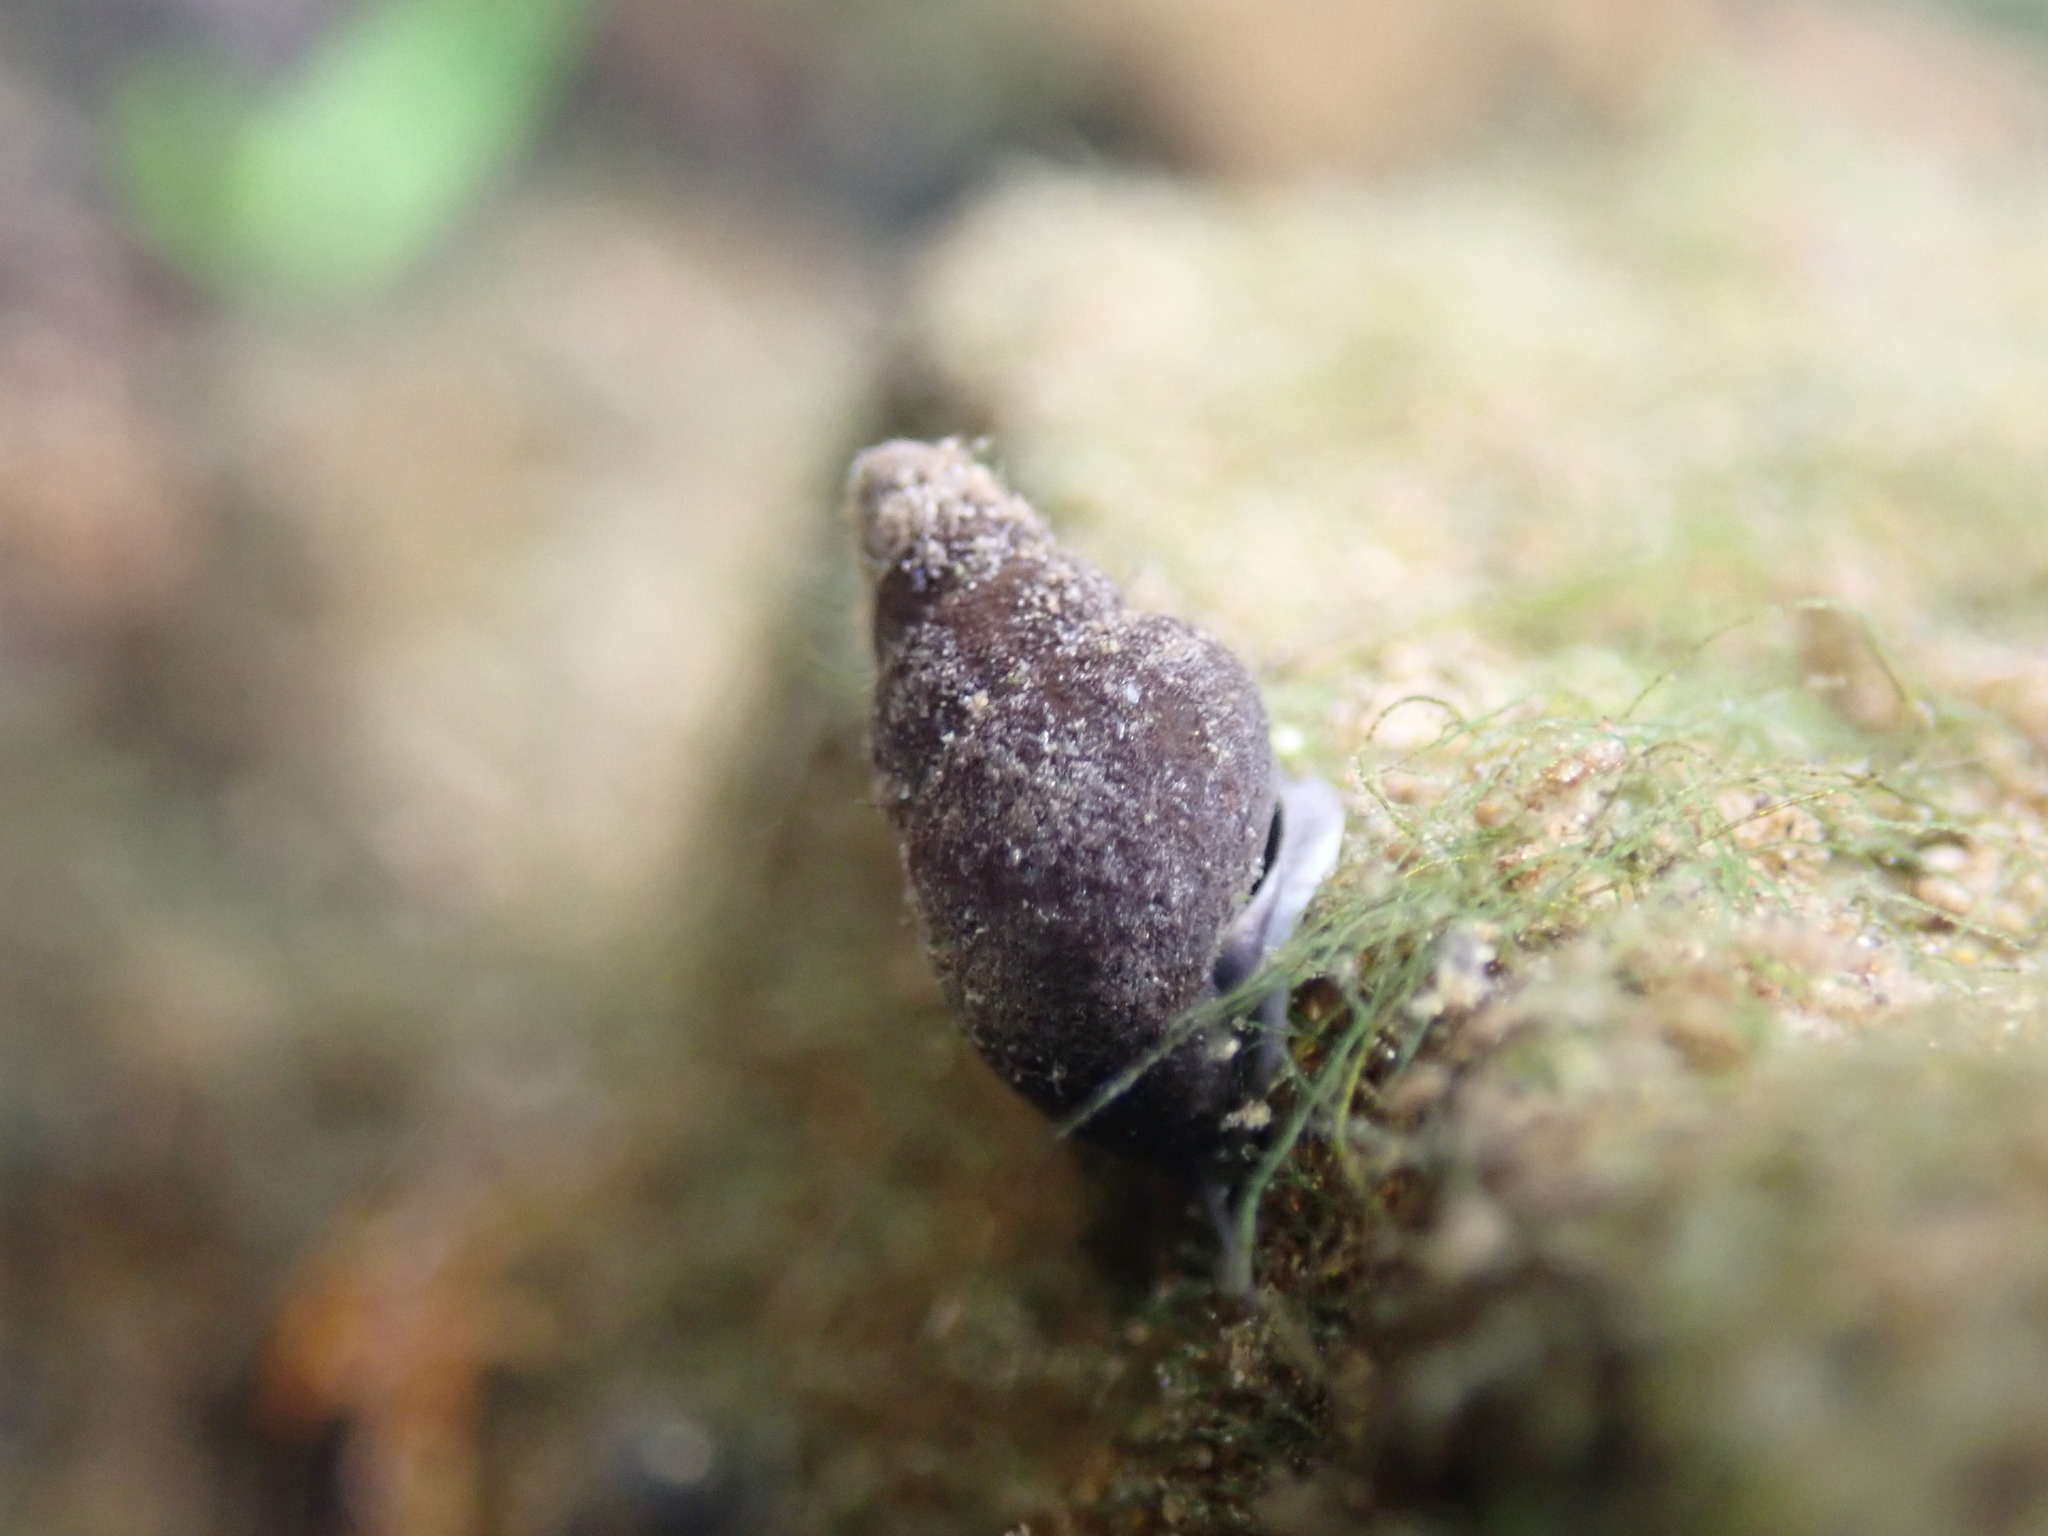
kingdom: Animalia
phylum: Mollusca
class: Gastropoda
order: Littorinimorpha
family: Tateidae
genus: Potamopyrgus
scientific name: Potamopyrgus antipodarum
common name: Jenkins' spire snail
